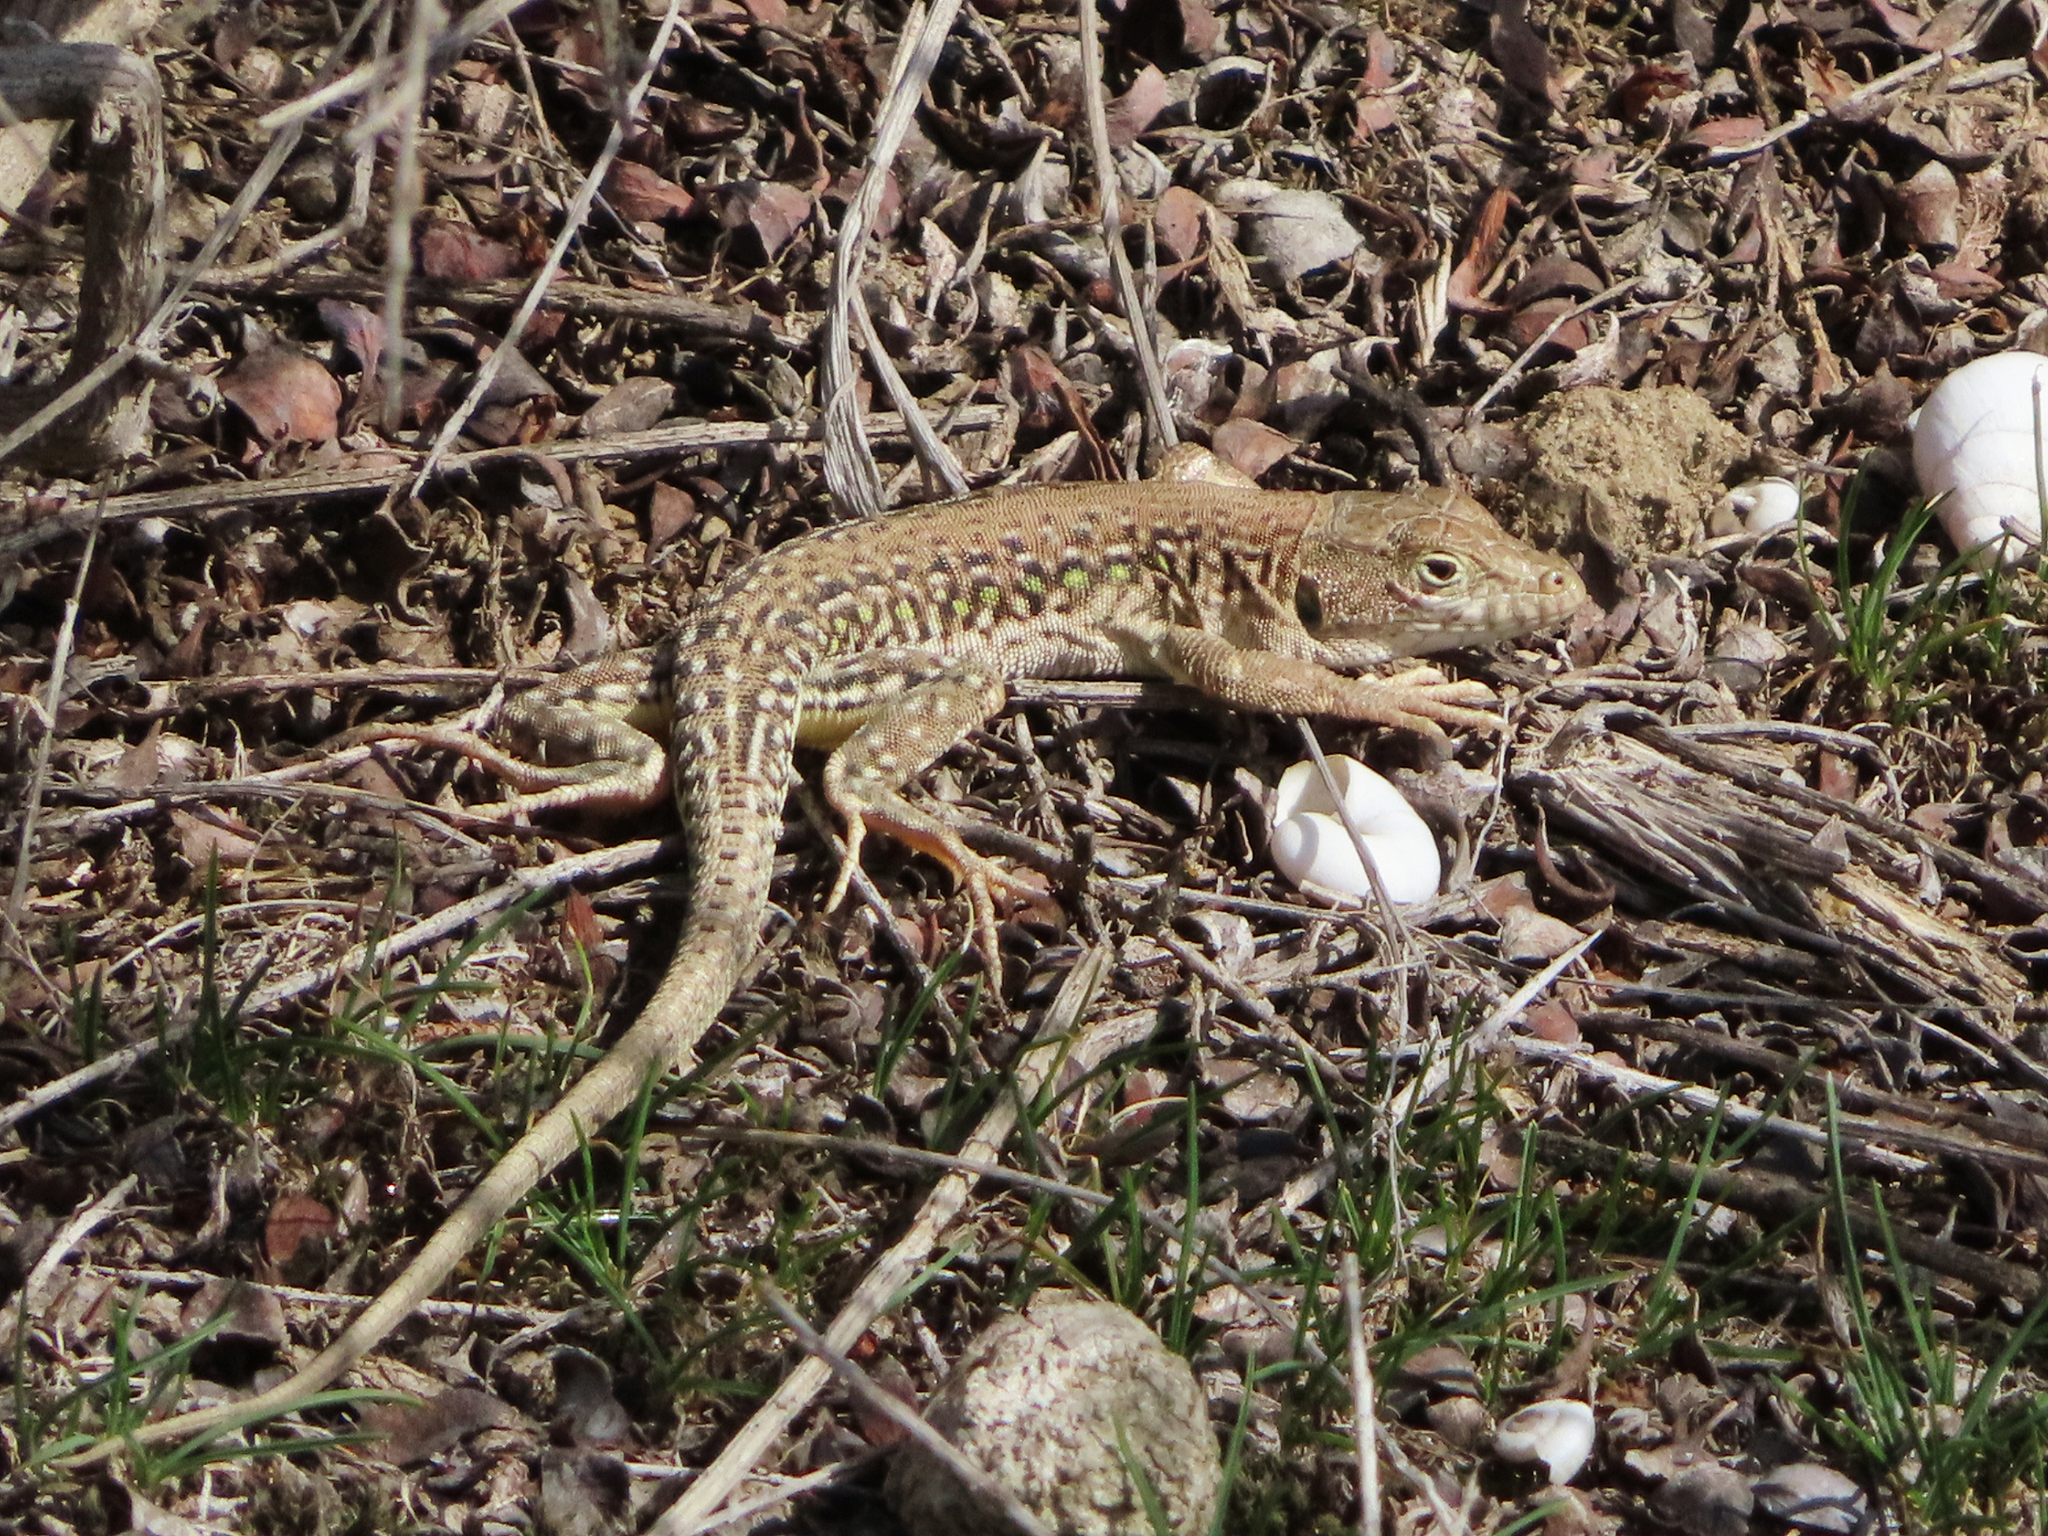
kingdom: Animalia
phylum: Chordata
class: Squamata
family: Lacertidae
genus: Eremias
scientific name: Eremias strauchi
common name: Strauch's racerunner
